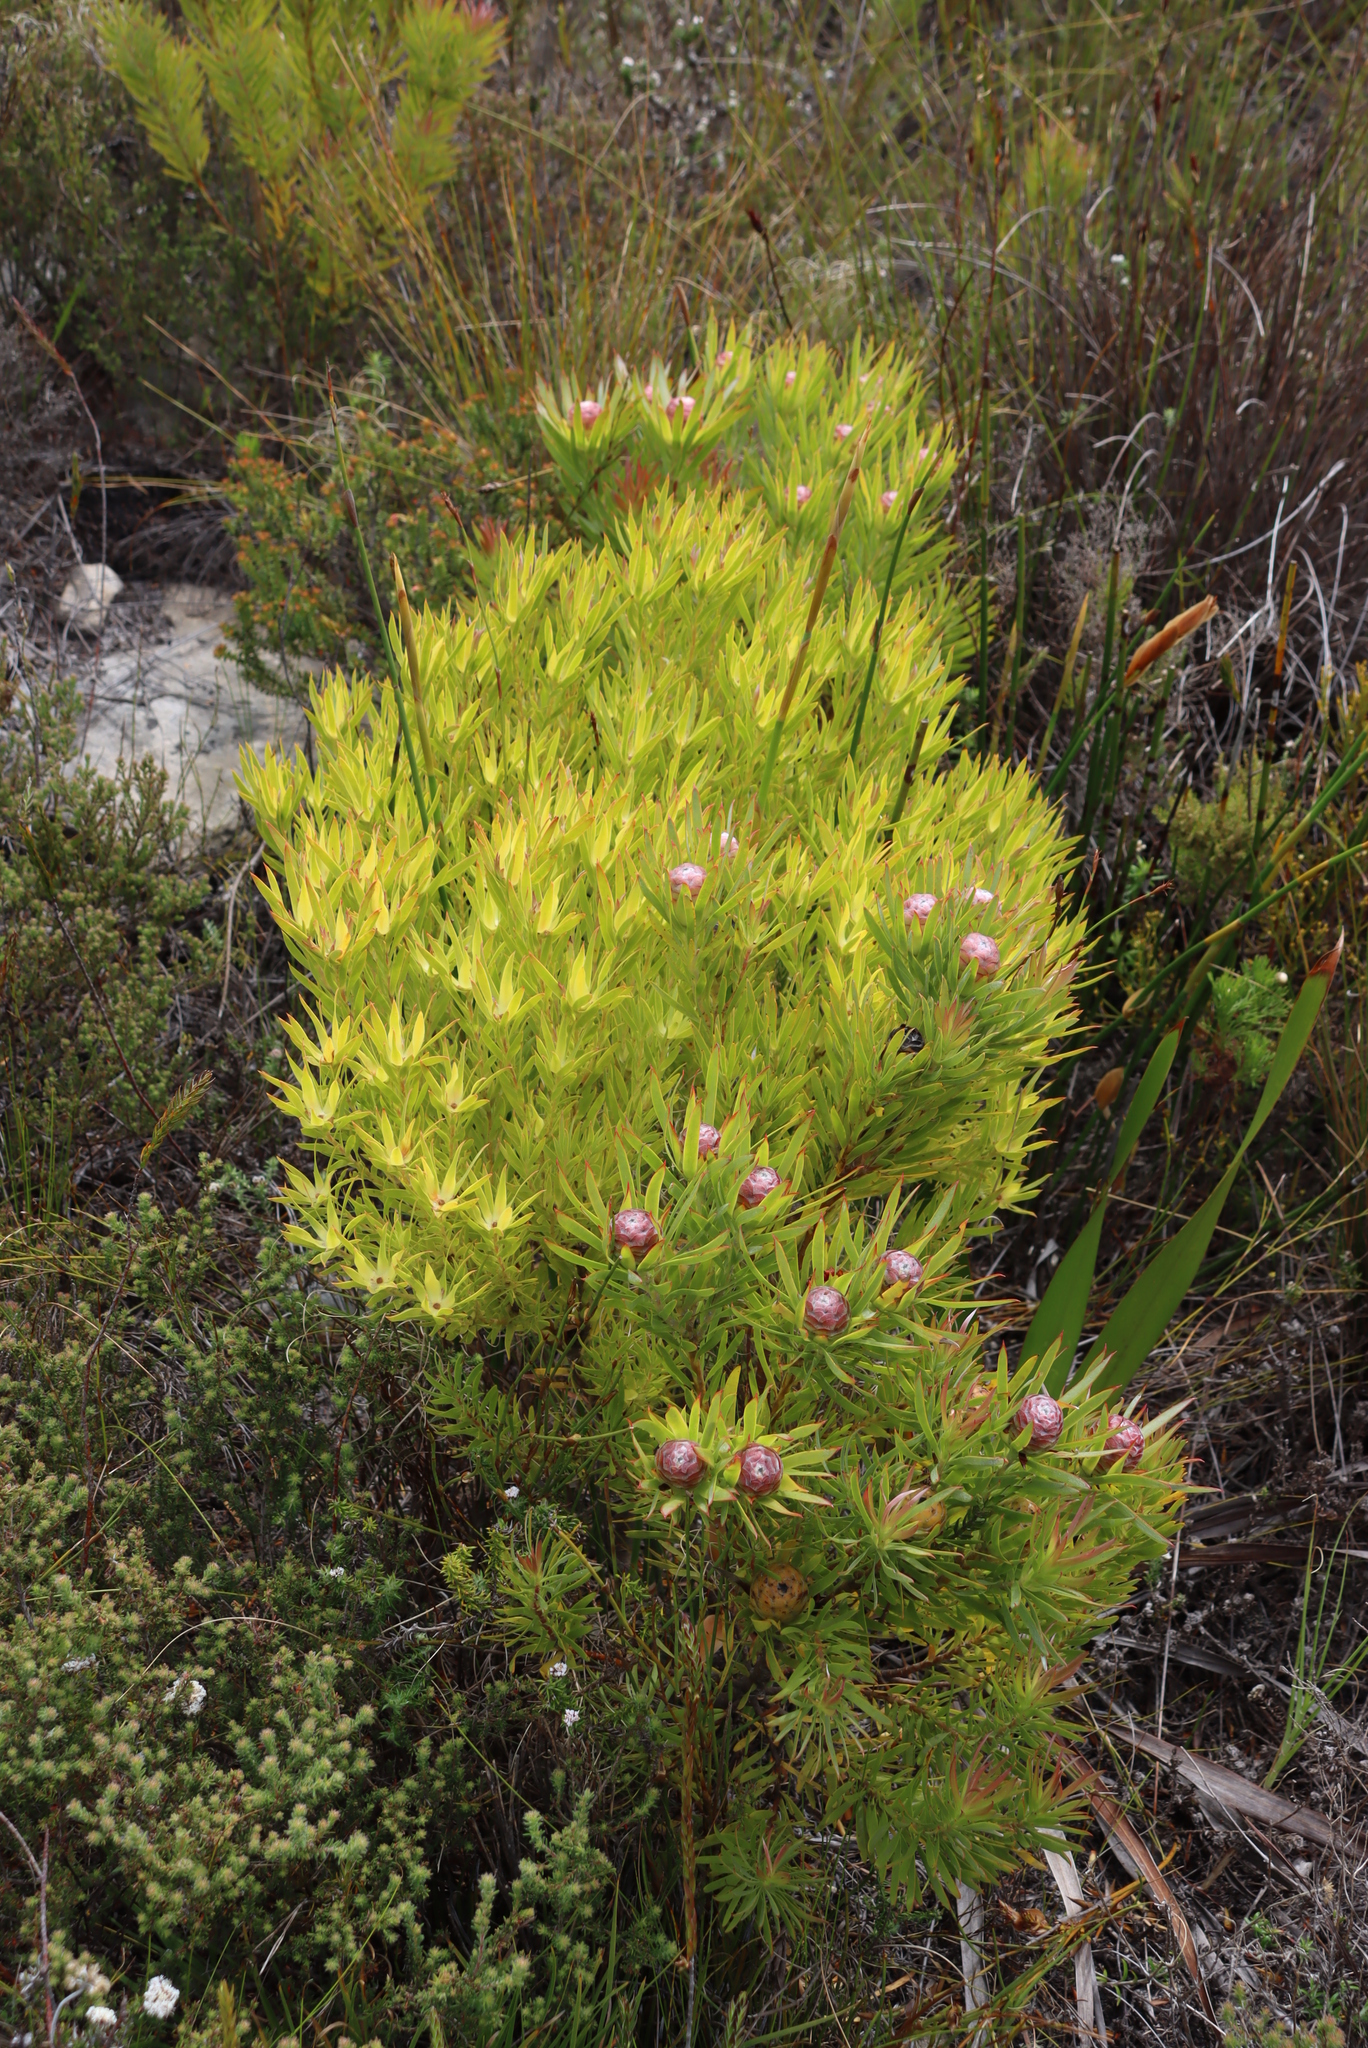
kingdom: Plantae
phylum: Tracheophyta
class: Magnoliopsida
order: Proteales
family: Proteaceae
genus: Leucadendron
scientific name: Leucadendron xanthoconus
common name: Sickle-leaf conebush
